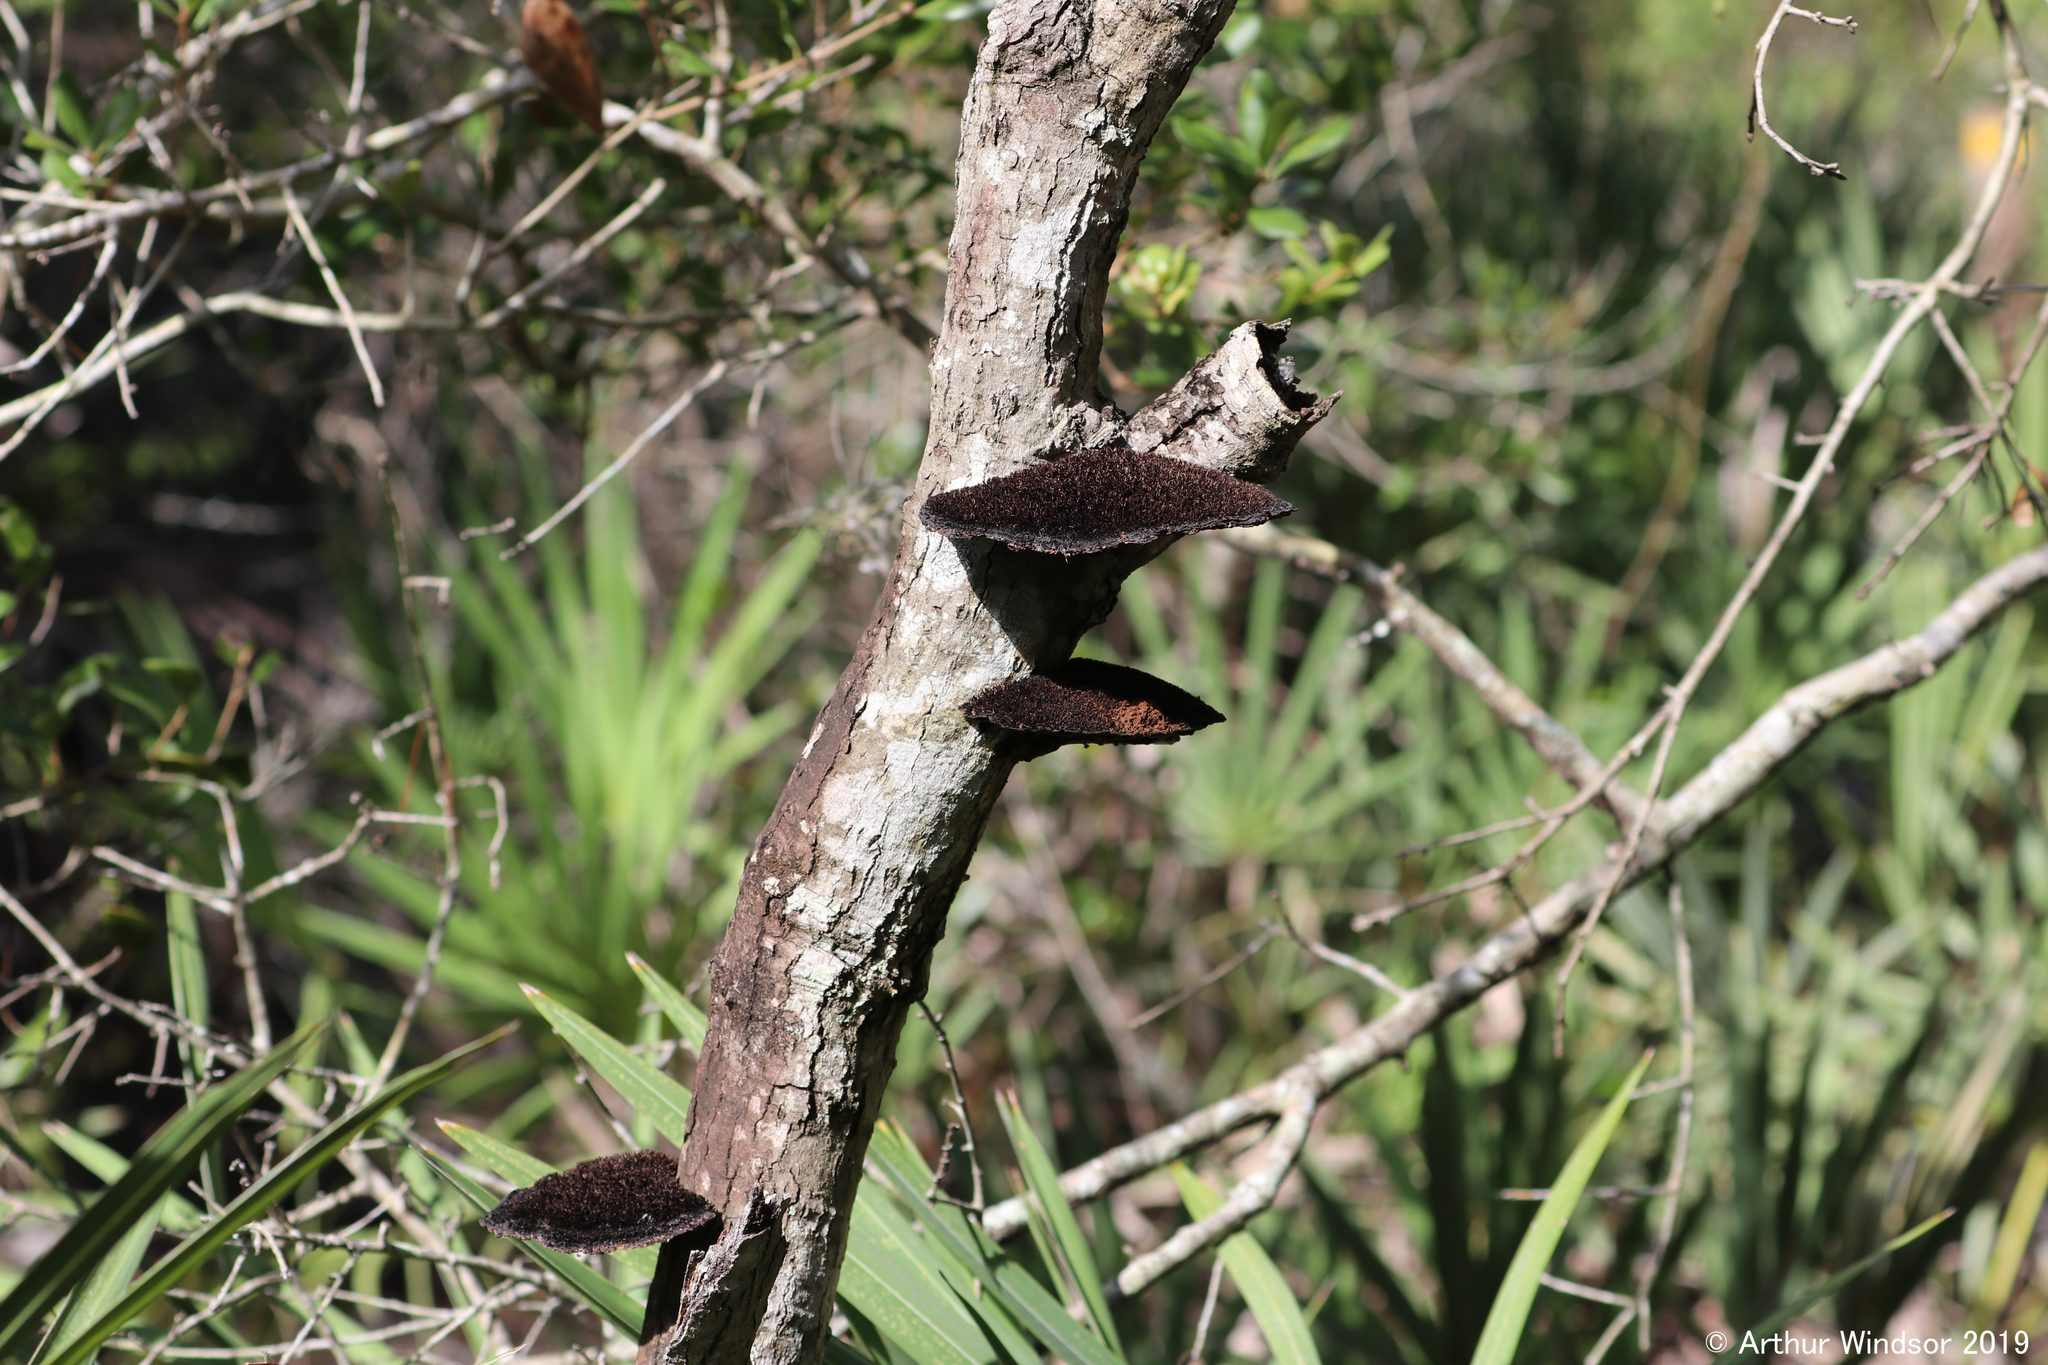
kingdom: Fungi
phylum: Basidiomycota
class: Agaricomycetes
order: Polyporales
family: Cerrenaceae
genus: Cerrena
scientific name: Cerrena hydnoides
